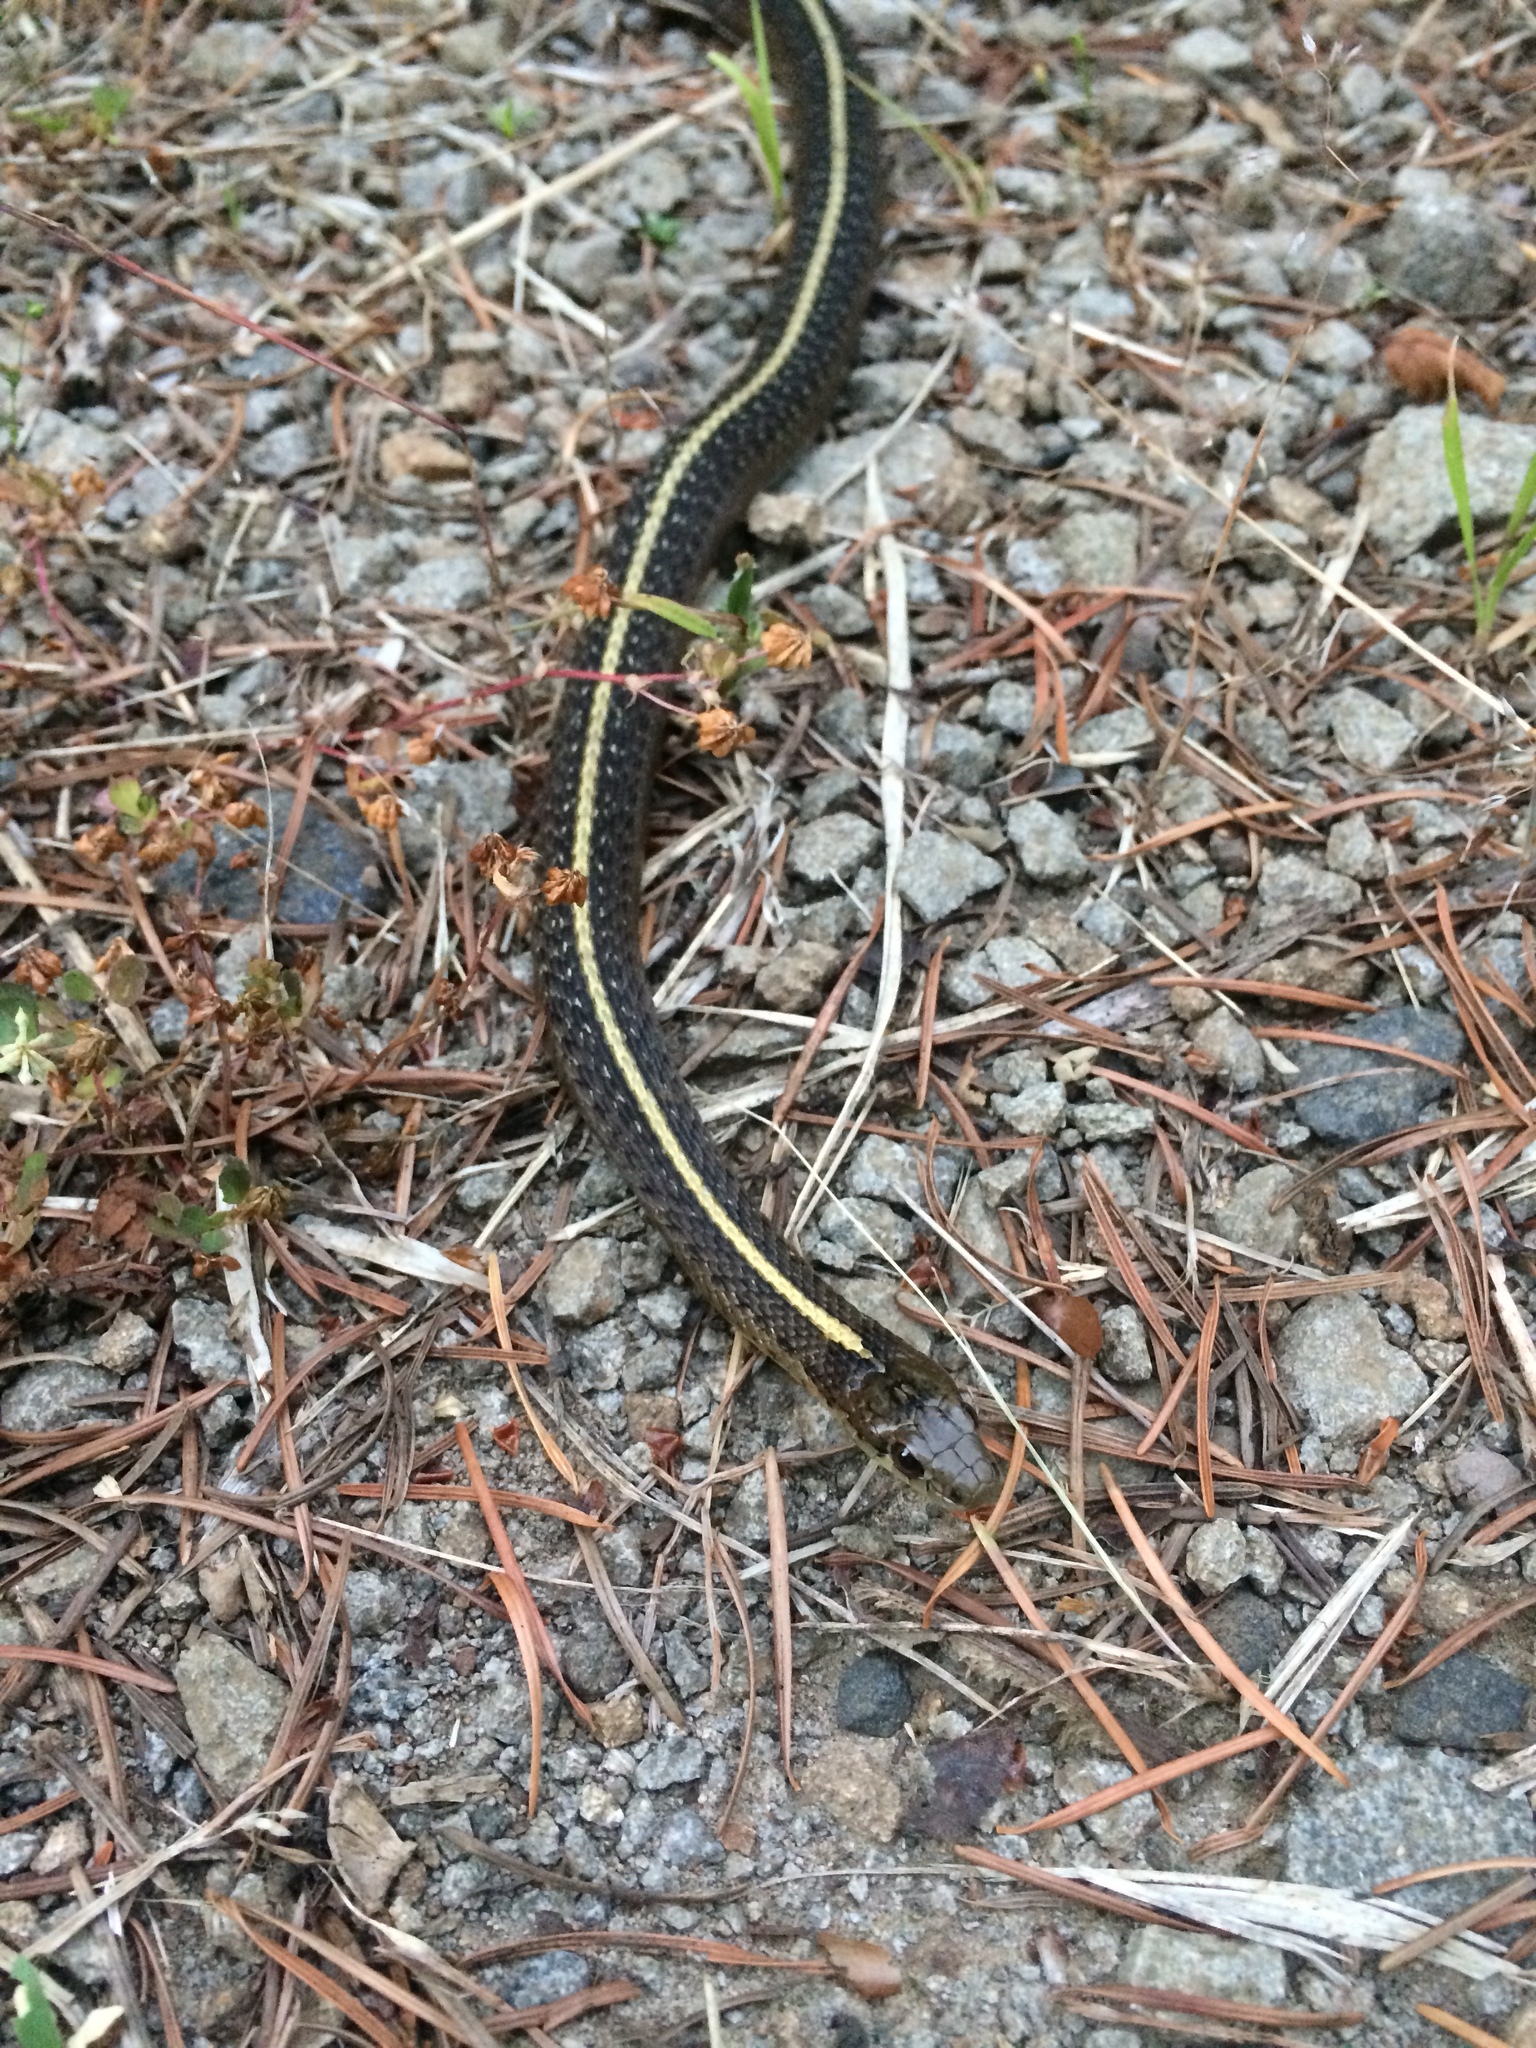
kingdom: Animalia
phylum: Chordata
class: Squamata
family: Colubridae
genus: Thamnophis
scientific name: Thamnophis ordinoides
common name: Northwestern garter snake
